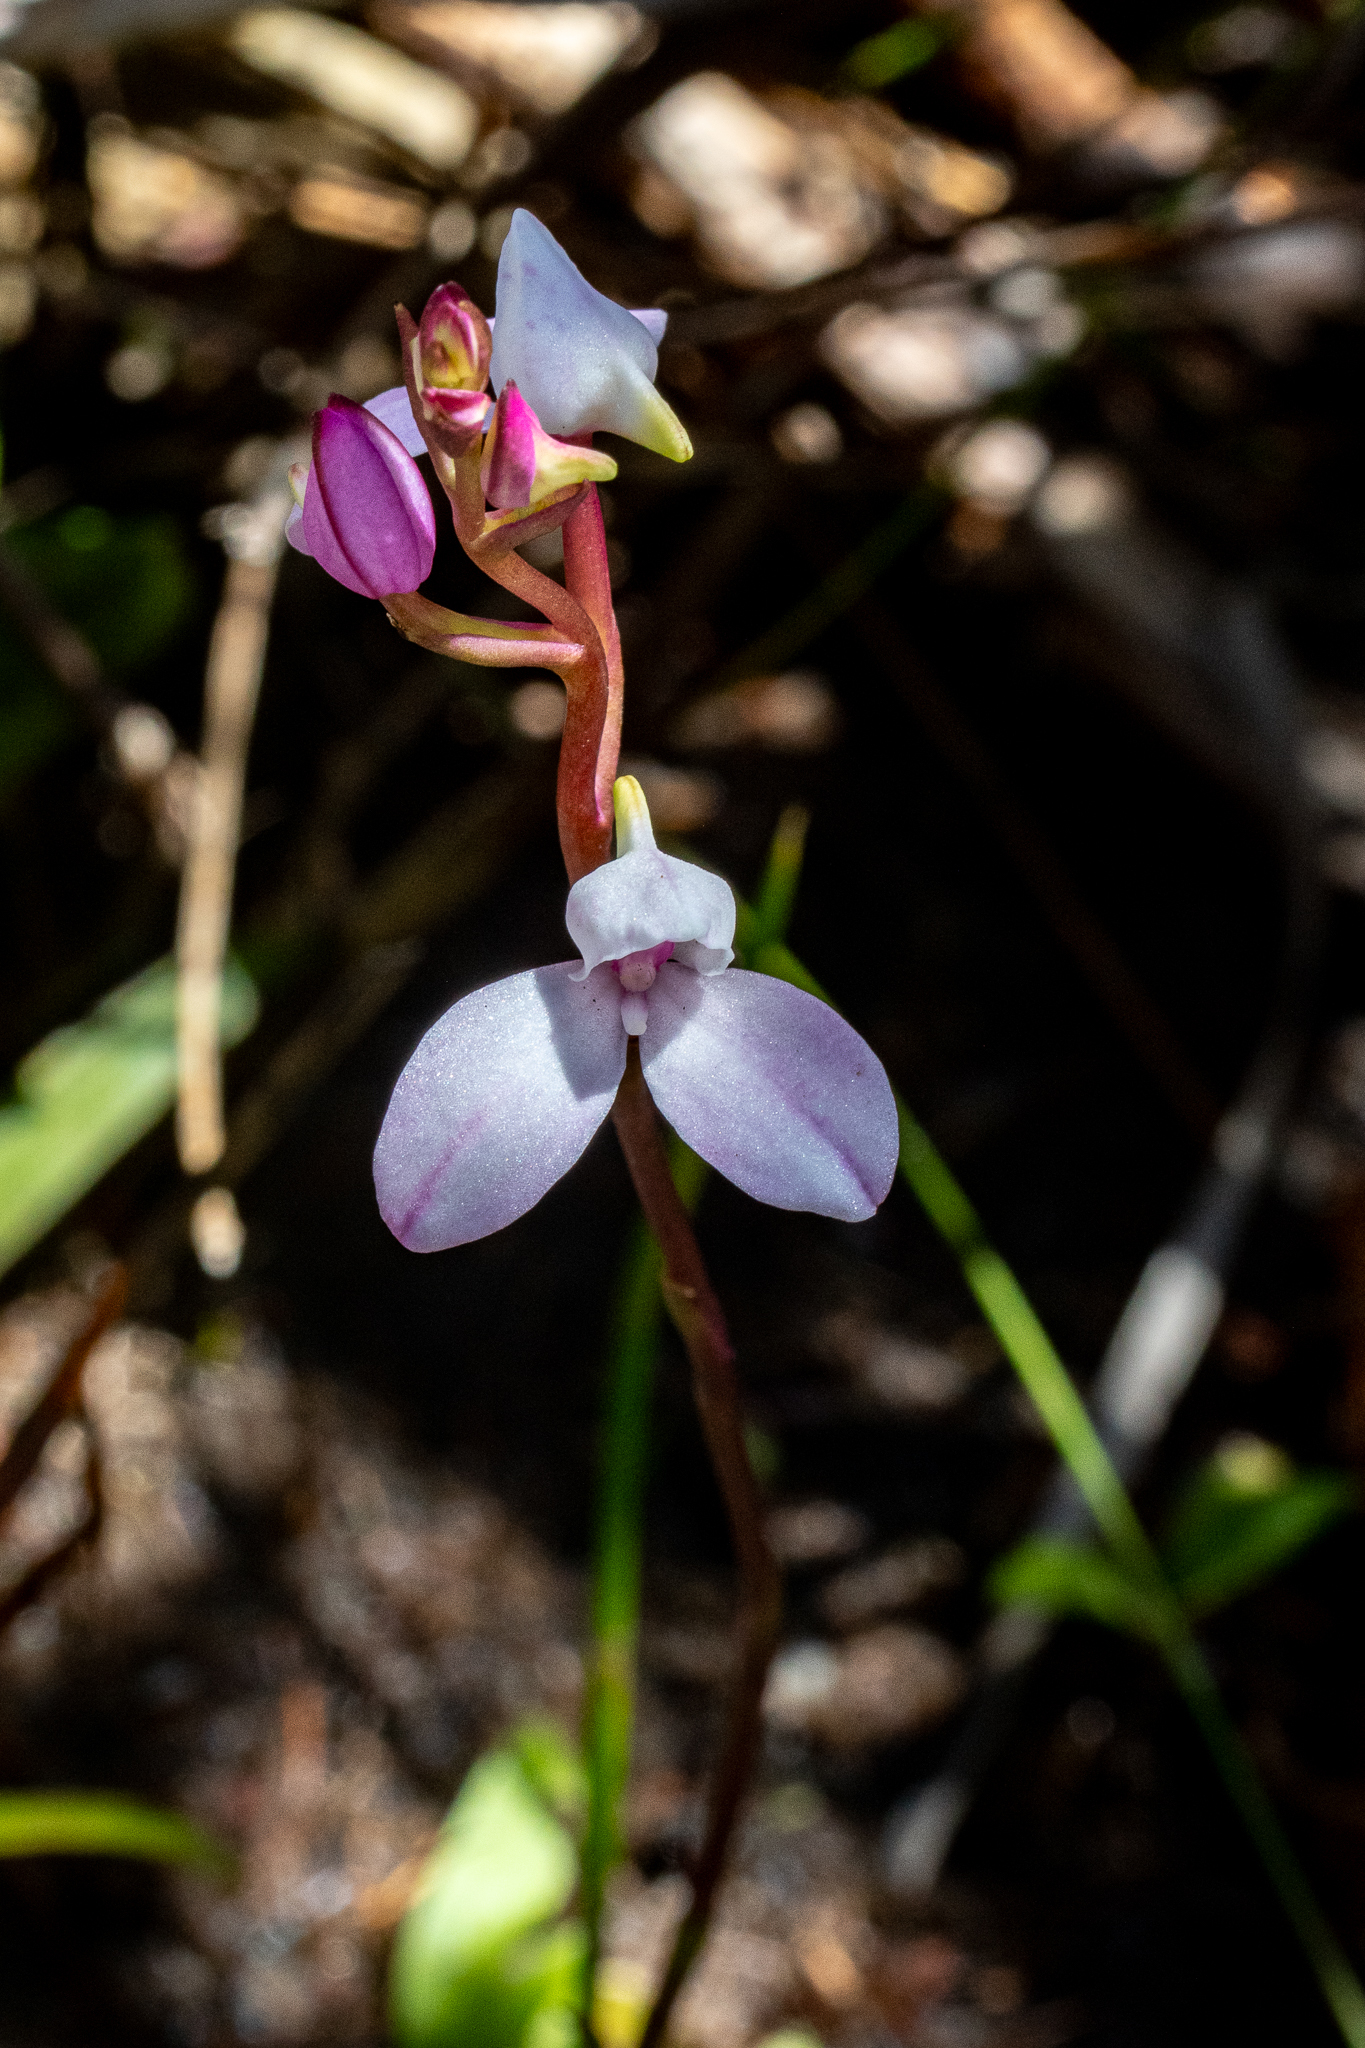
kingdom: Plantae
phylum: Tracheophyta
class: Liliopsida
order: Asparagales
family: Orchidaceae
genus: Disa
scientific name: Disa tripetaloides
